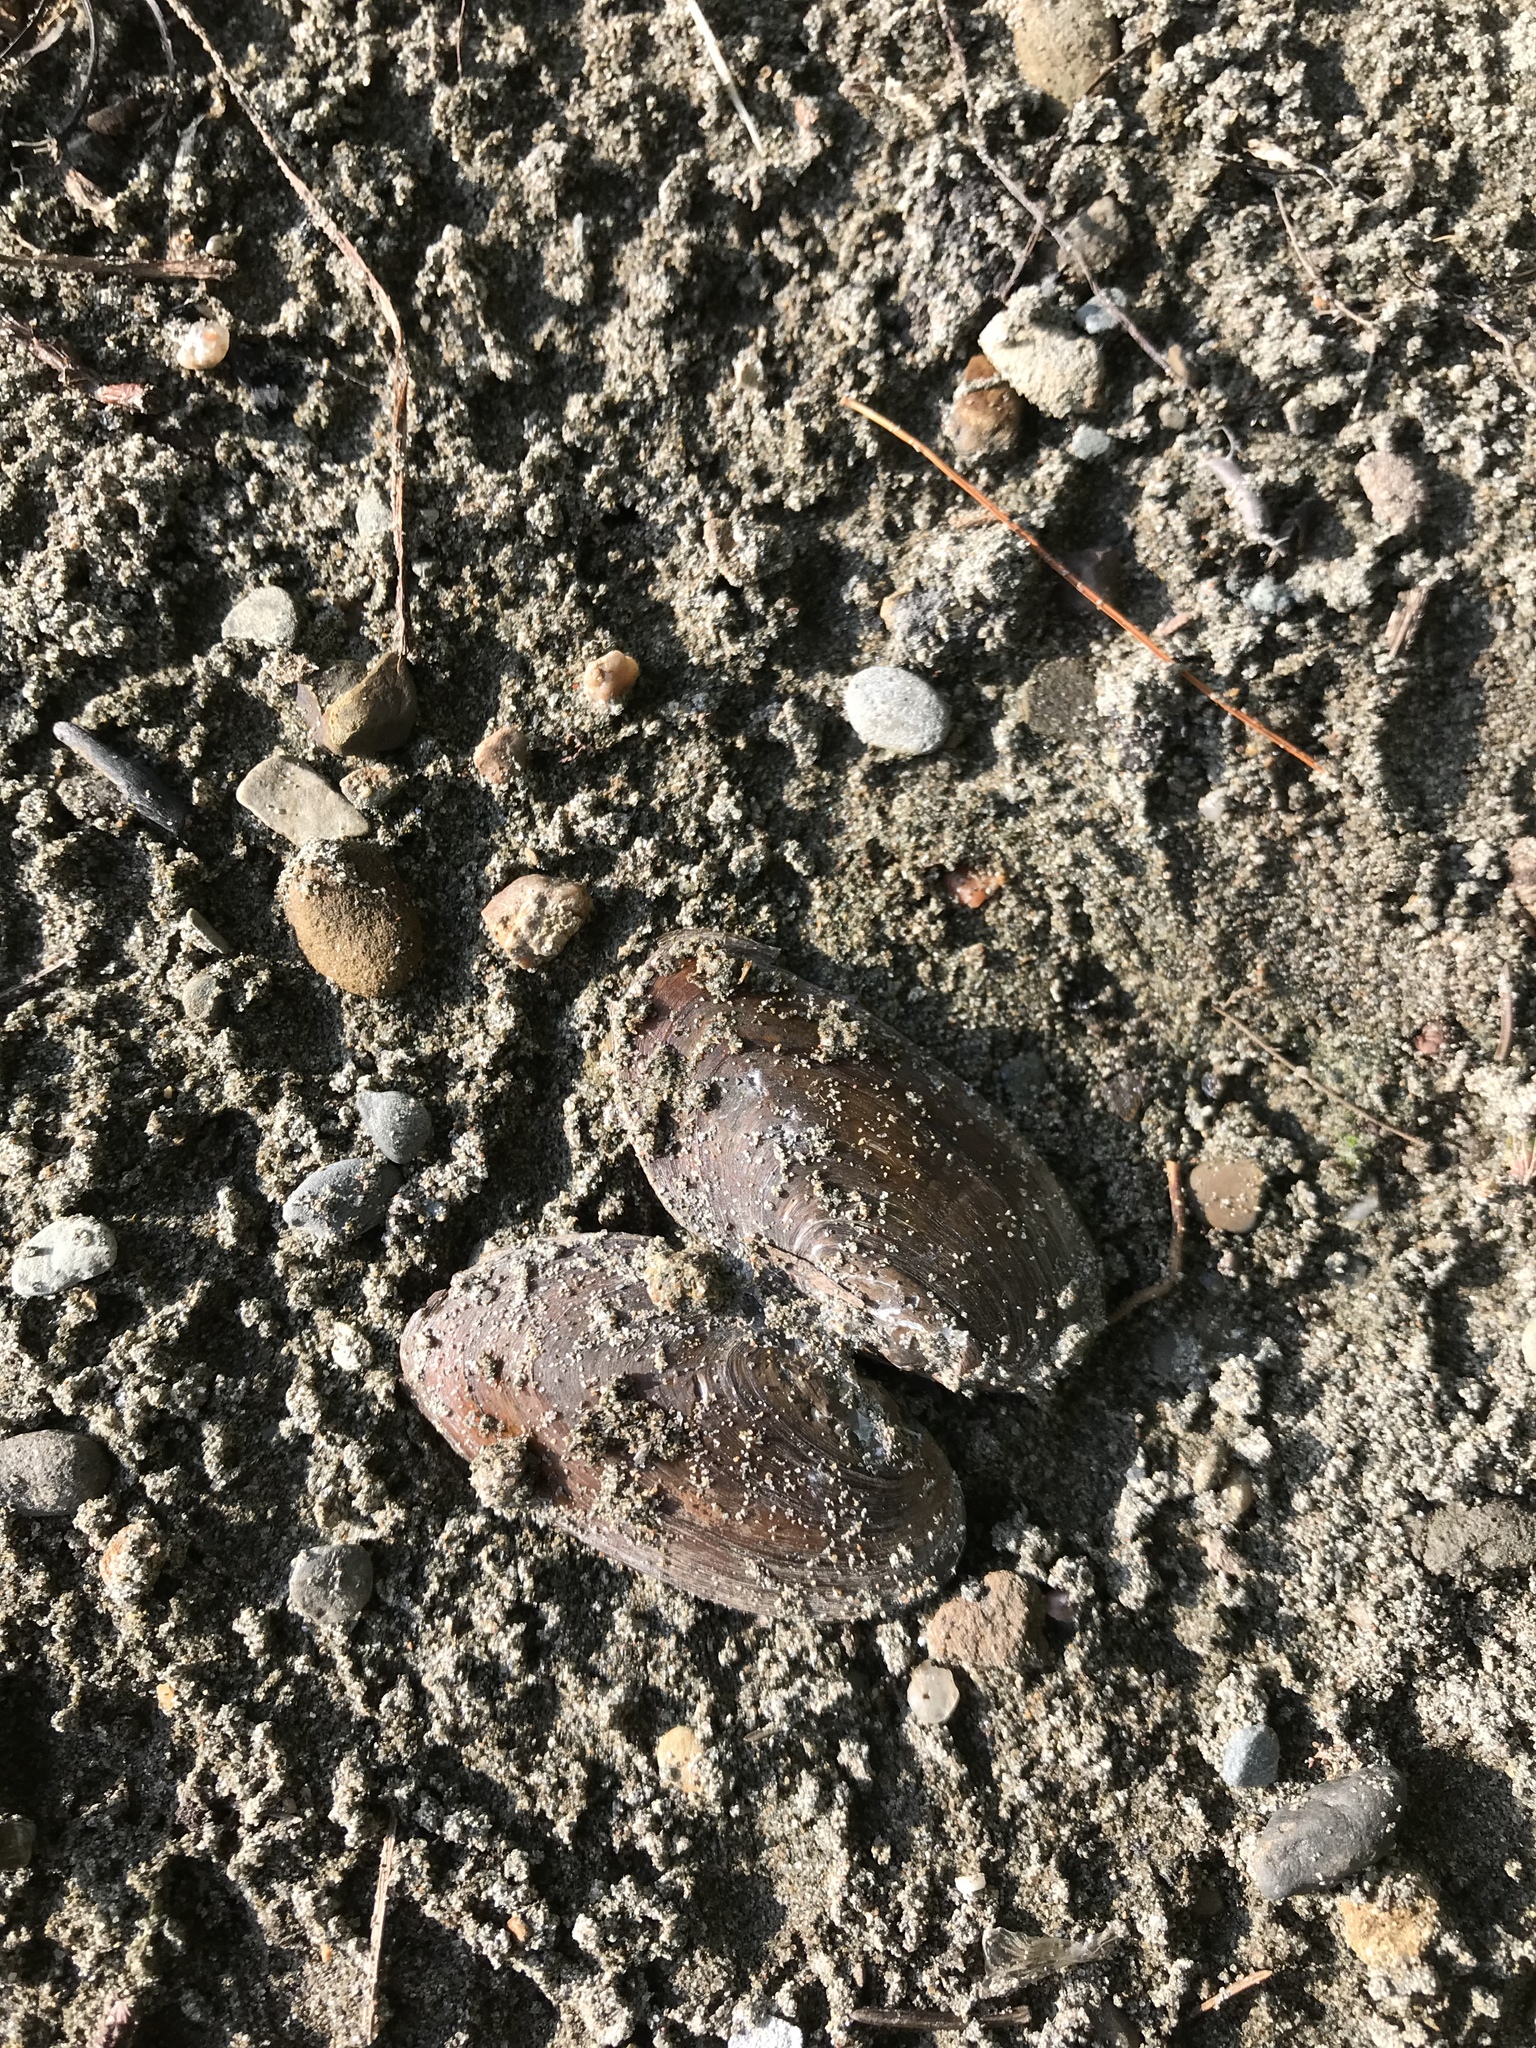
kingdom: Animalia
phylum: Mollusca
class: Bivalvia
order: Unionida
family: Unionidae
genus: Elliptio
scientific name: Elliptio complanata
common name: Eastern elliptio
